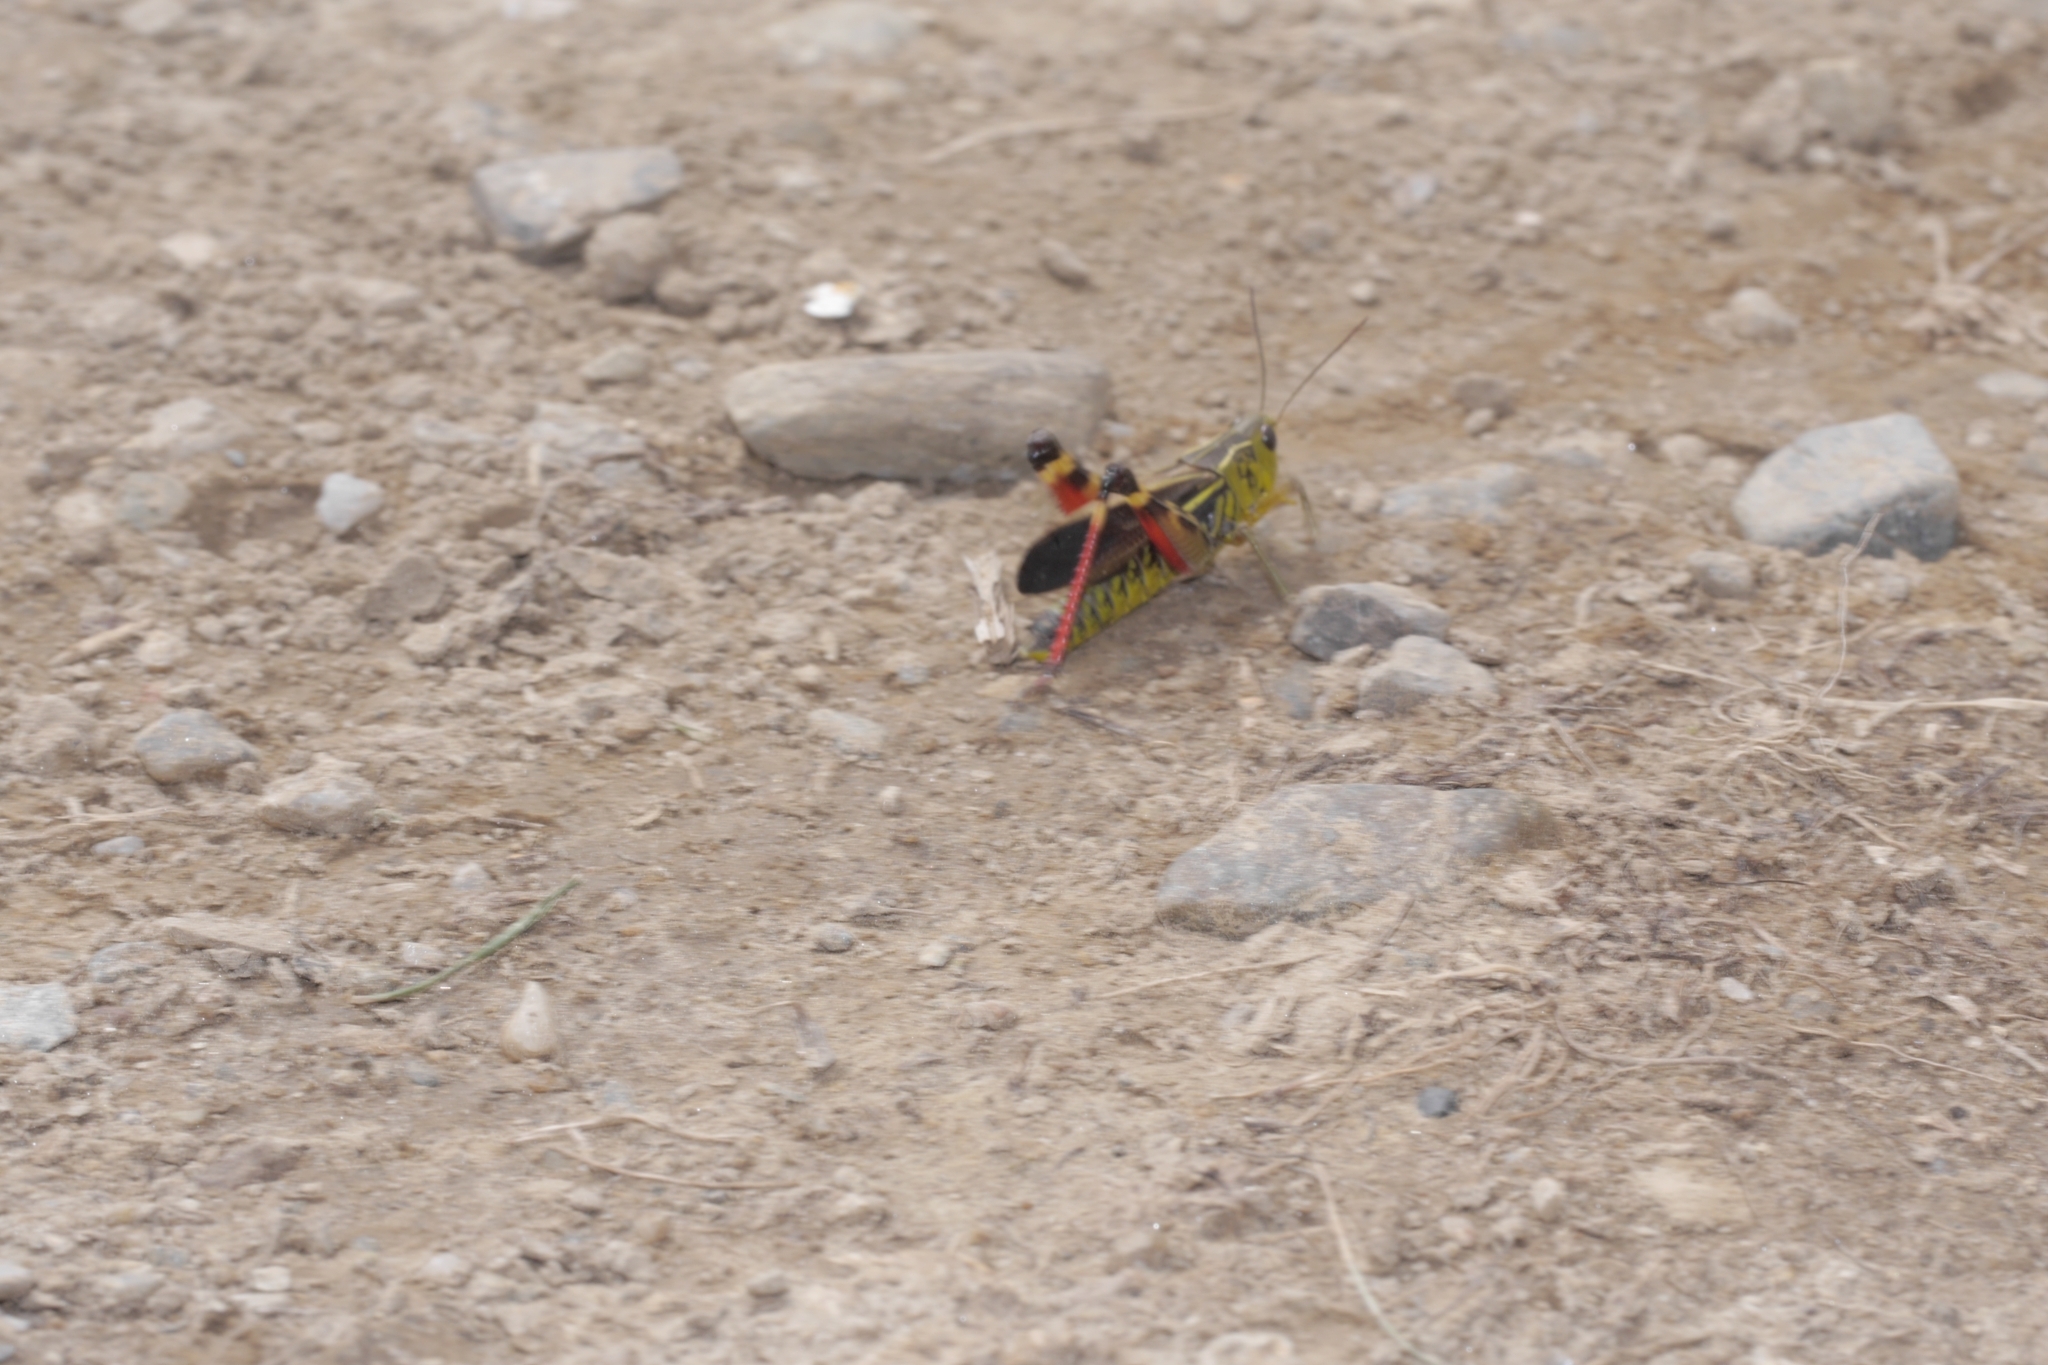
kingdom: Animalia
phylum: Arthropoda
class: Insecta
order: Orthoptera
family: Acrididae
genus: Arcyptera
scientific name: Arcyptera fusca
